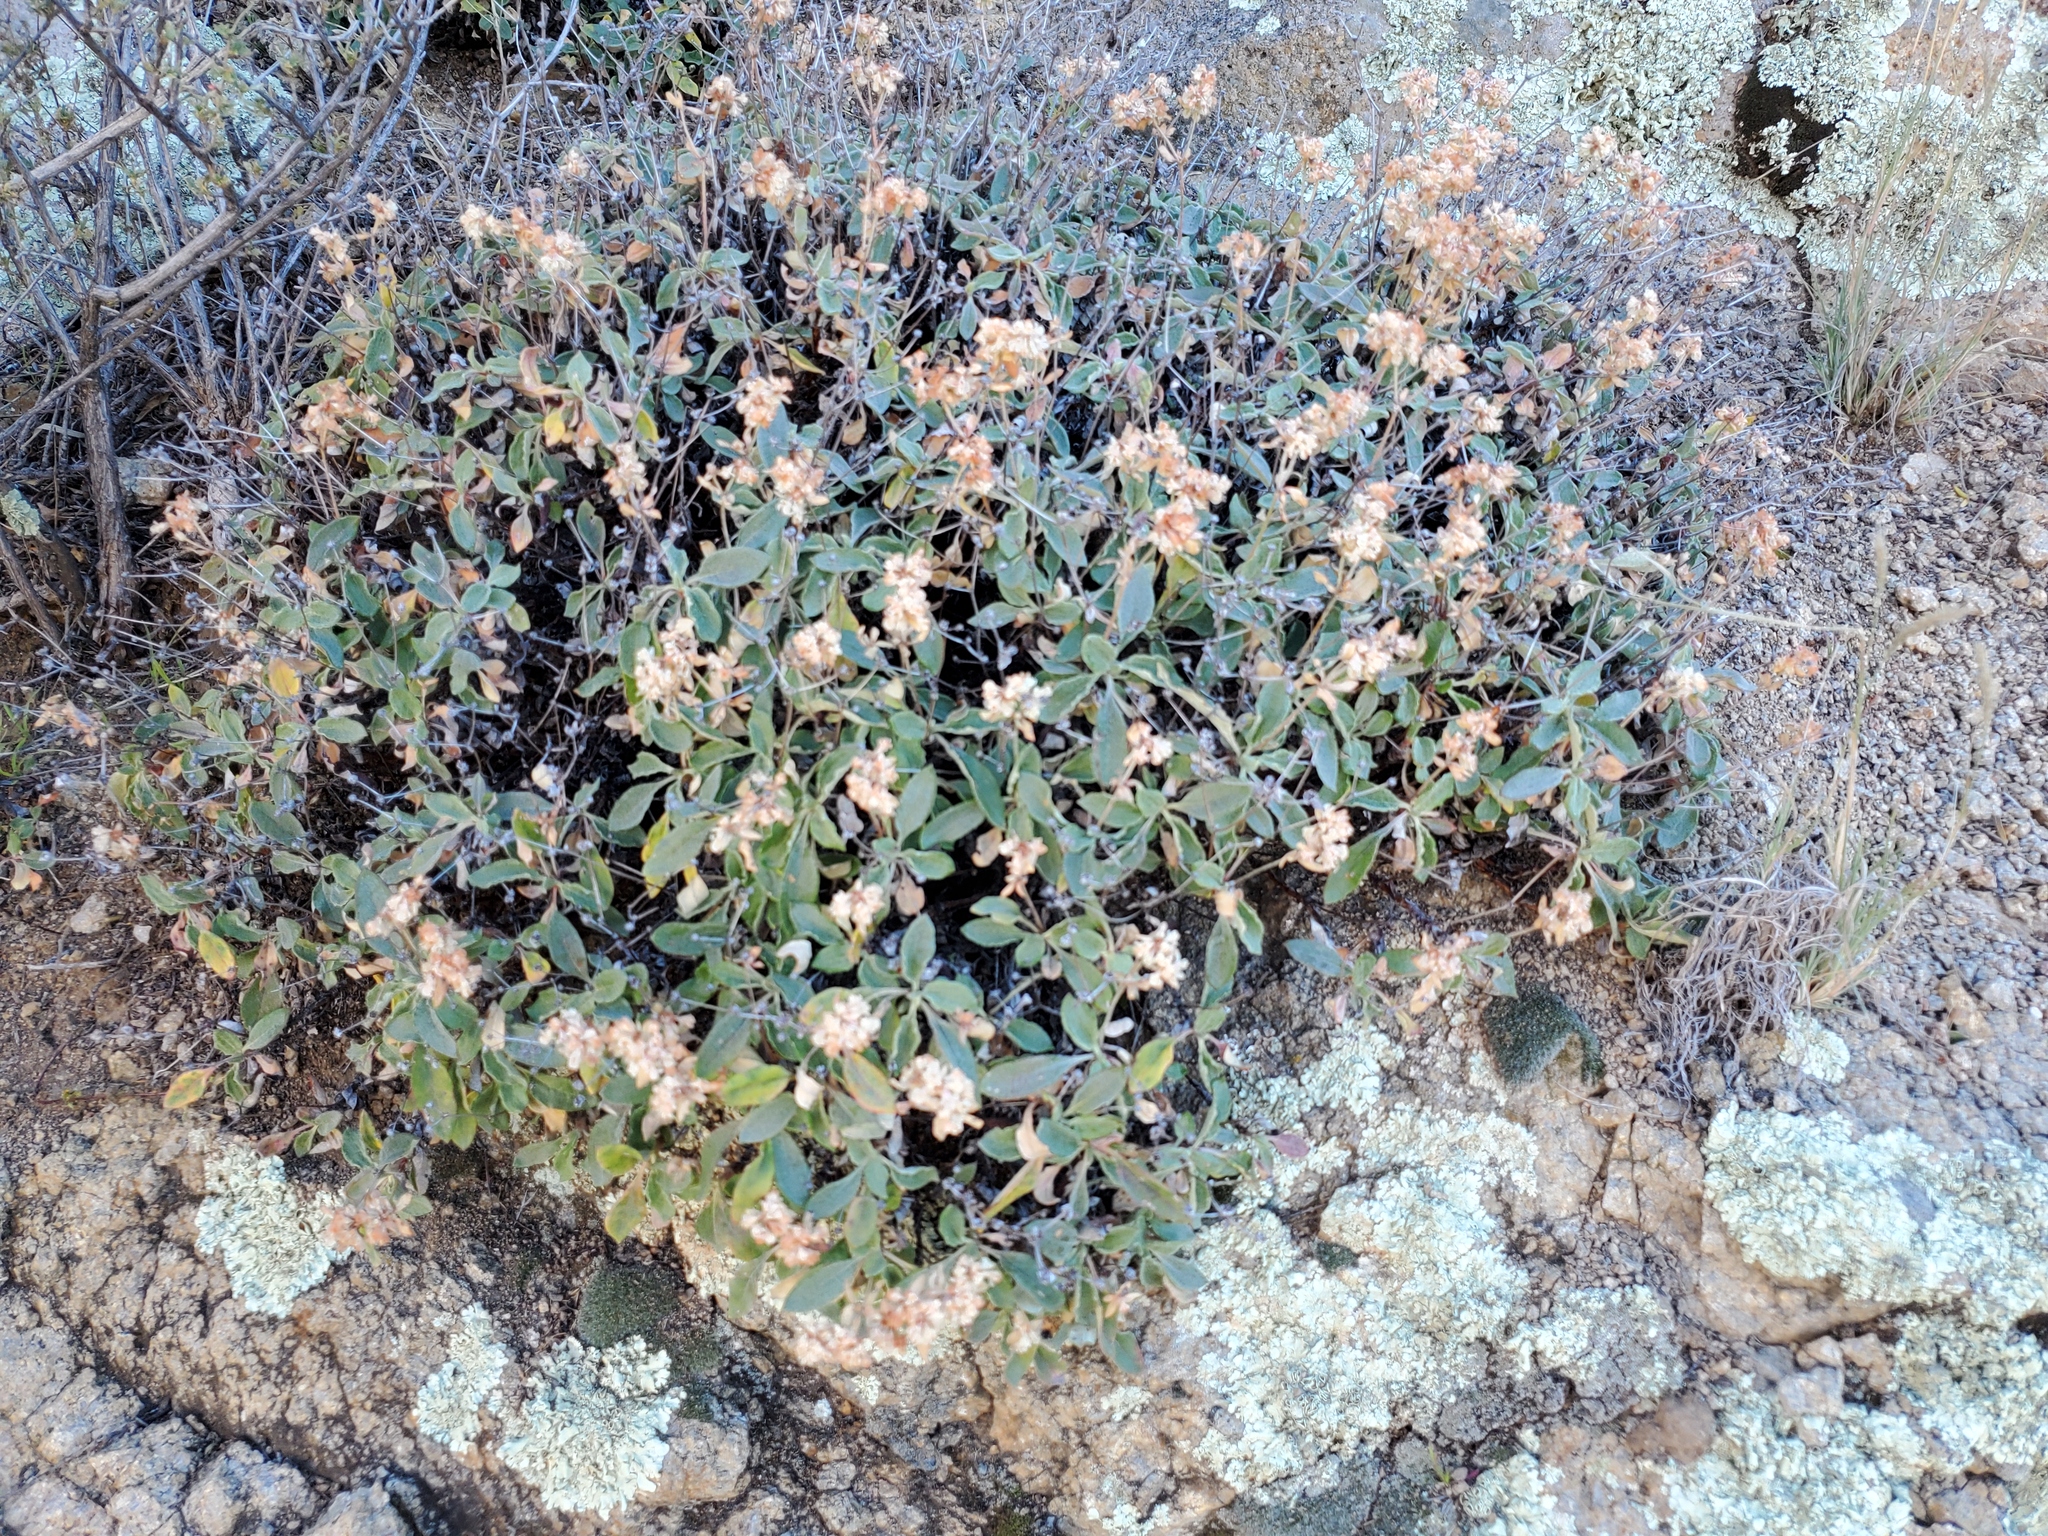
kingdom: Plantae
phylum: Tracheophyta
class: Magnoliopsida
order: Caryophyllales
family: Polygonaceae
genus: Eriogonum
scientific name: Eriogonum jamesii
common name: Antelope-sage
